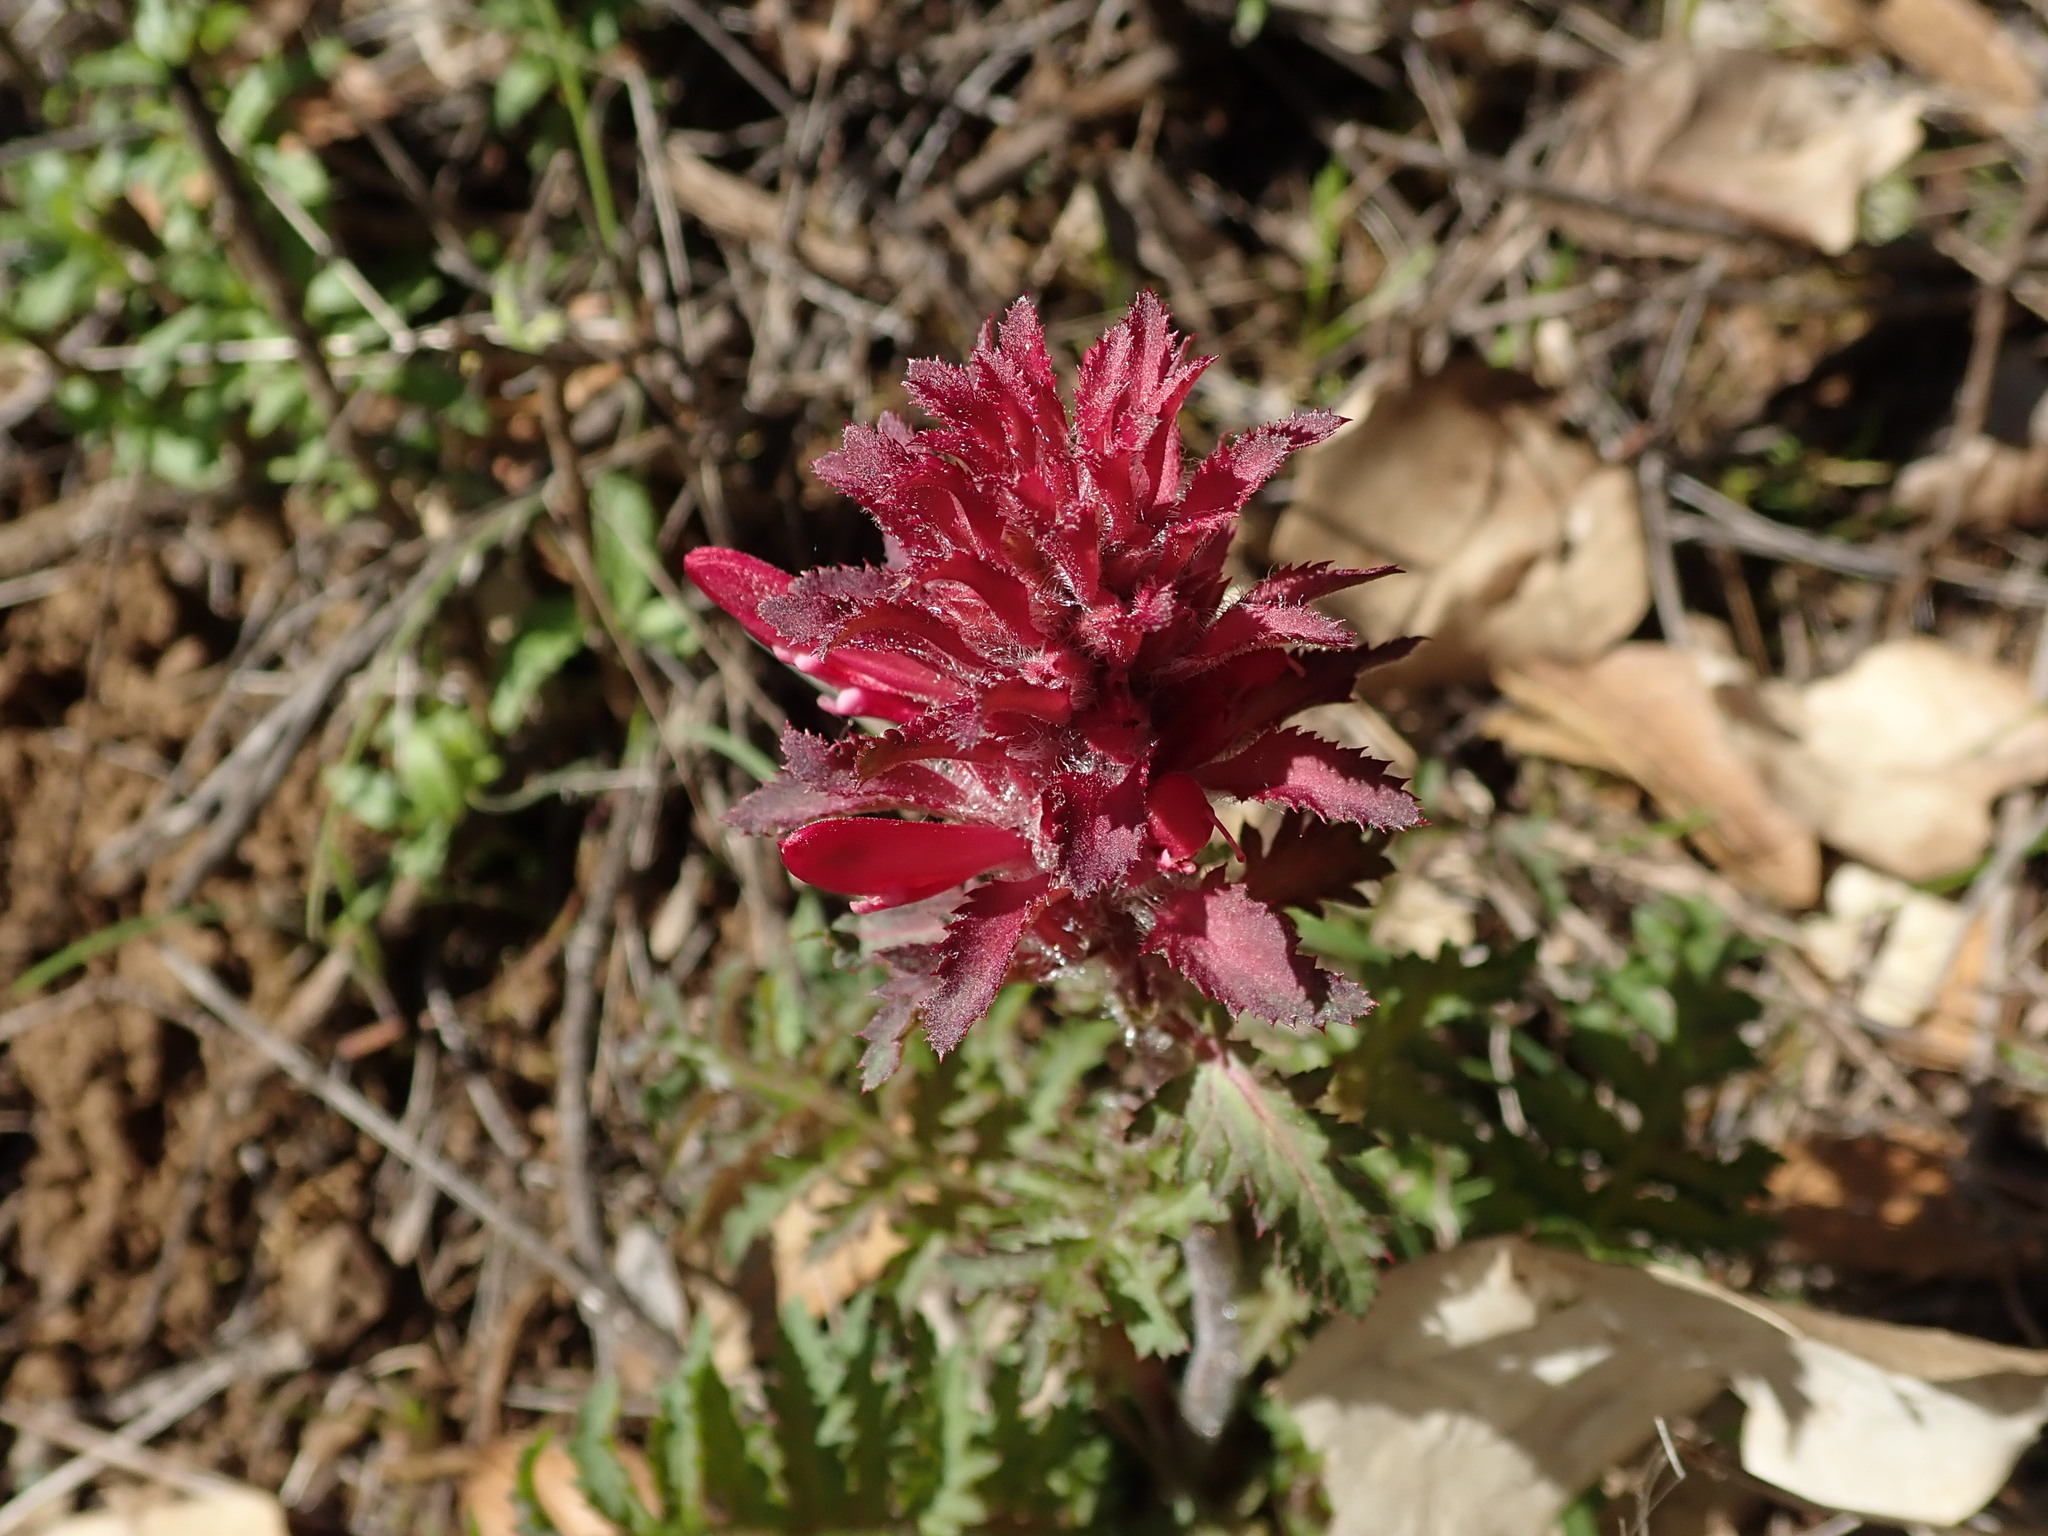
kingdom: Plantae
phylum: Tracheophyta
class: Magnoliopsida
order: Lamiales
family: Orobanchaceae
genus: Pedicularis
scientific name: Pedicularis densiflora
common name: Indian warrior
